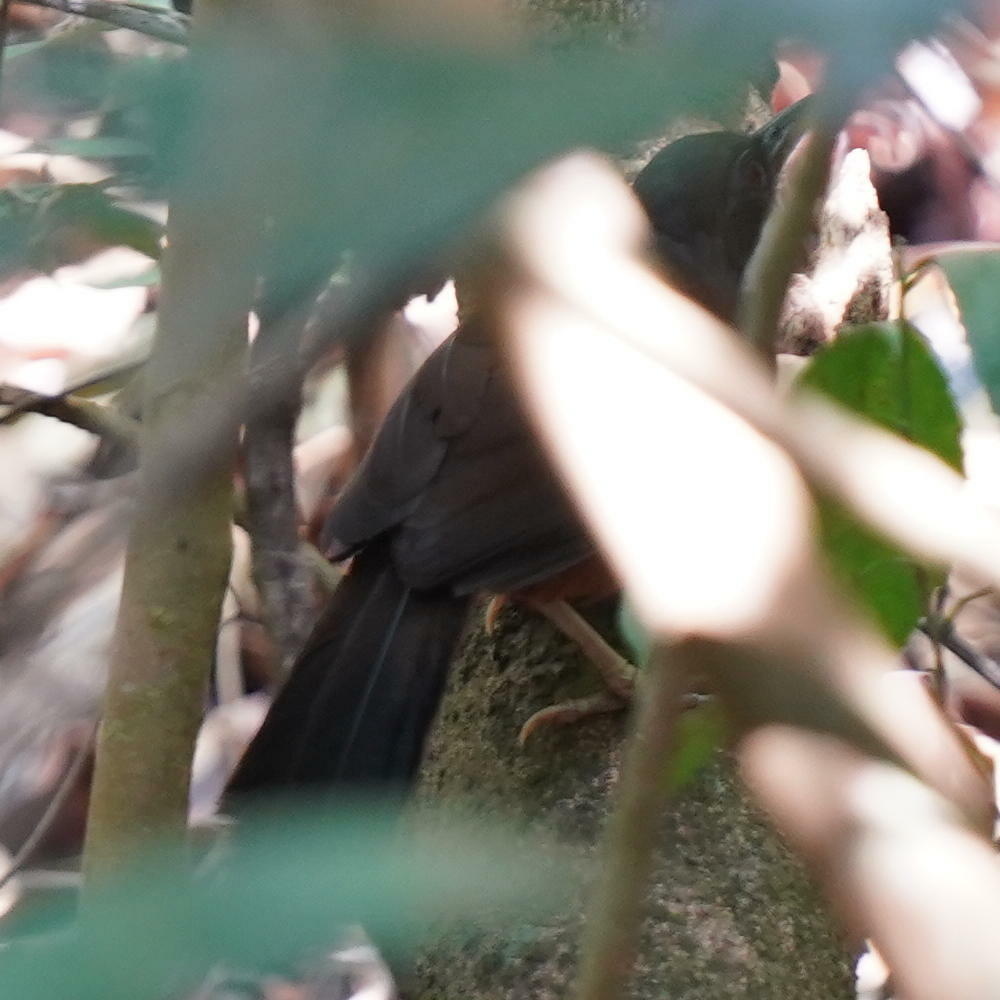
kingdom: Animalia
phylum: Chordata
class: Aves
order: Passeriformes
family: Leiothrichidae
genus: Garrulax
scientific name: Garrulax delesserti
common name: Wynaad laughingthrush
